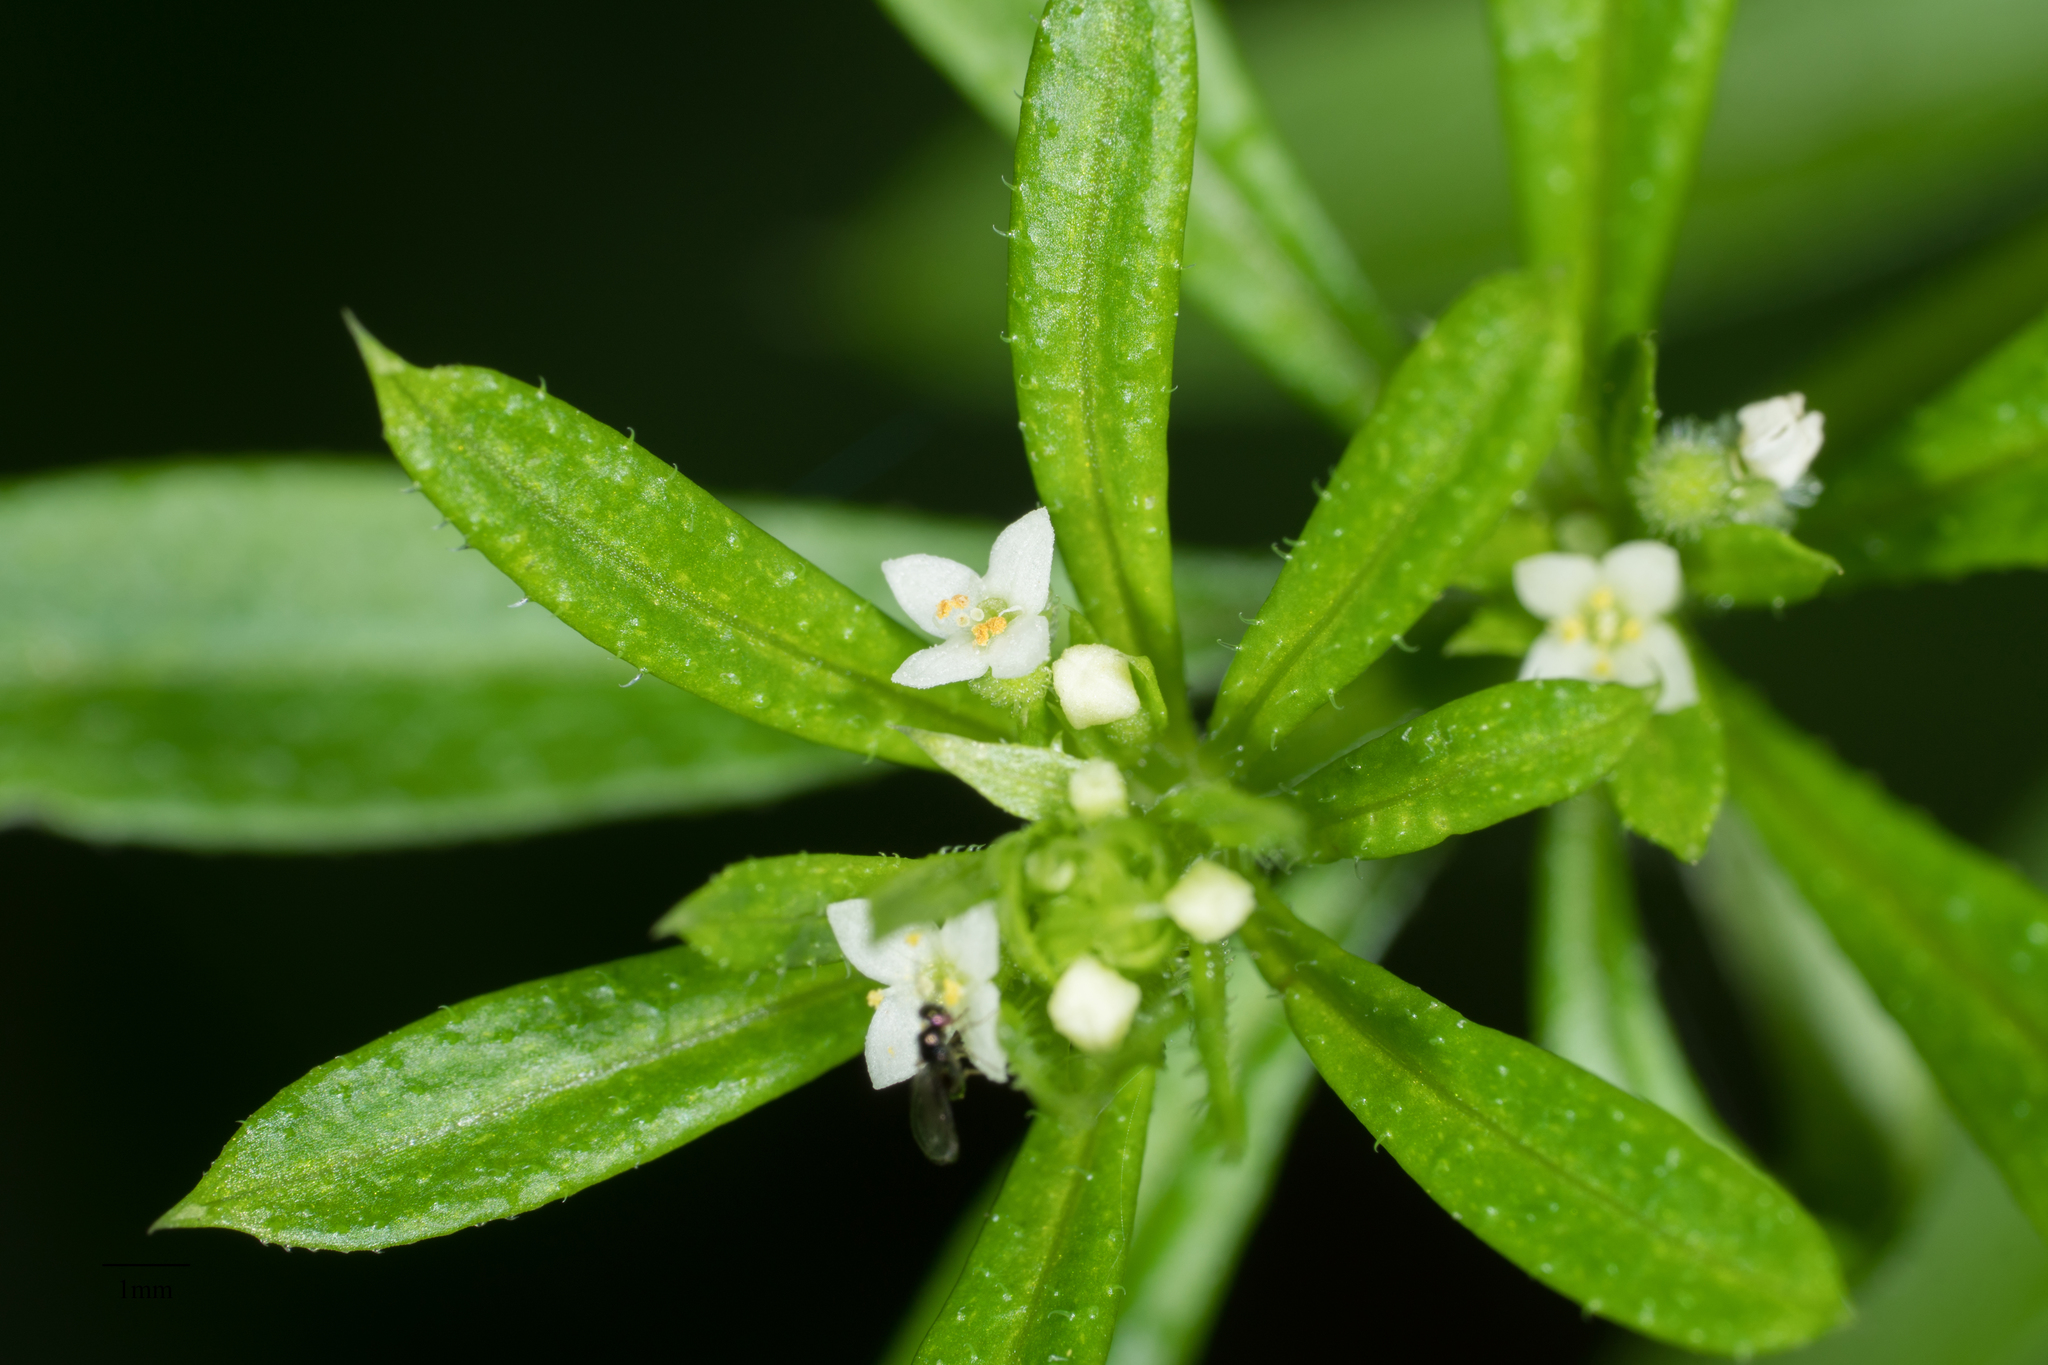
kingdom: Plantae
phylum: Tracheophyta
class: Magnoliopsida
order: Gentianales
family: Rubiaceae
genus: Galium
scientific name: Galium aparine
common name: Cleavers
